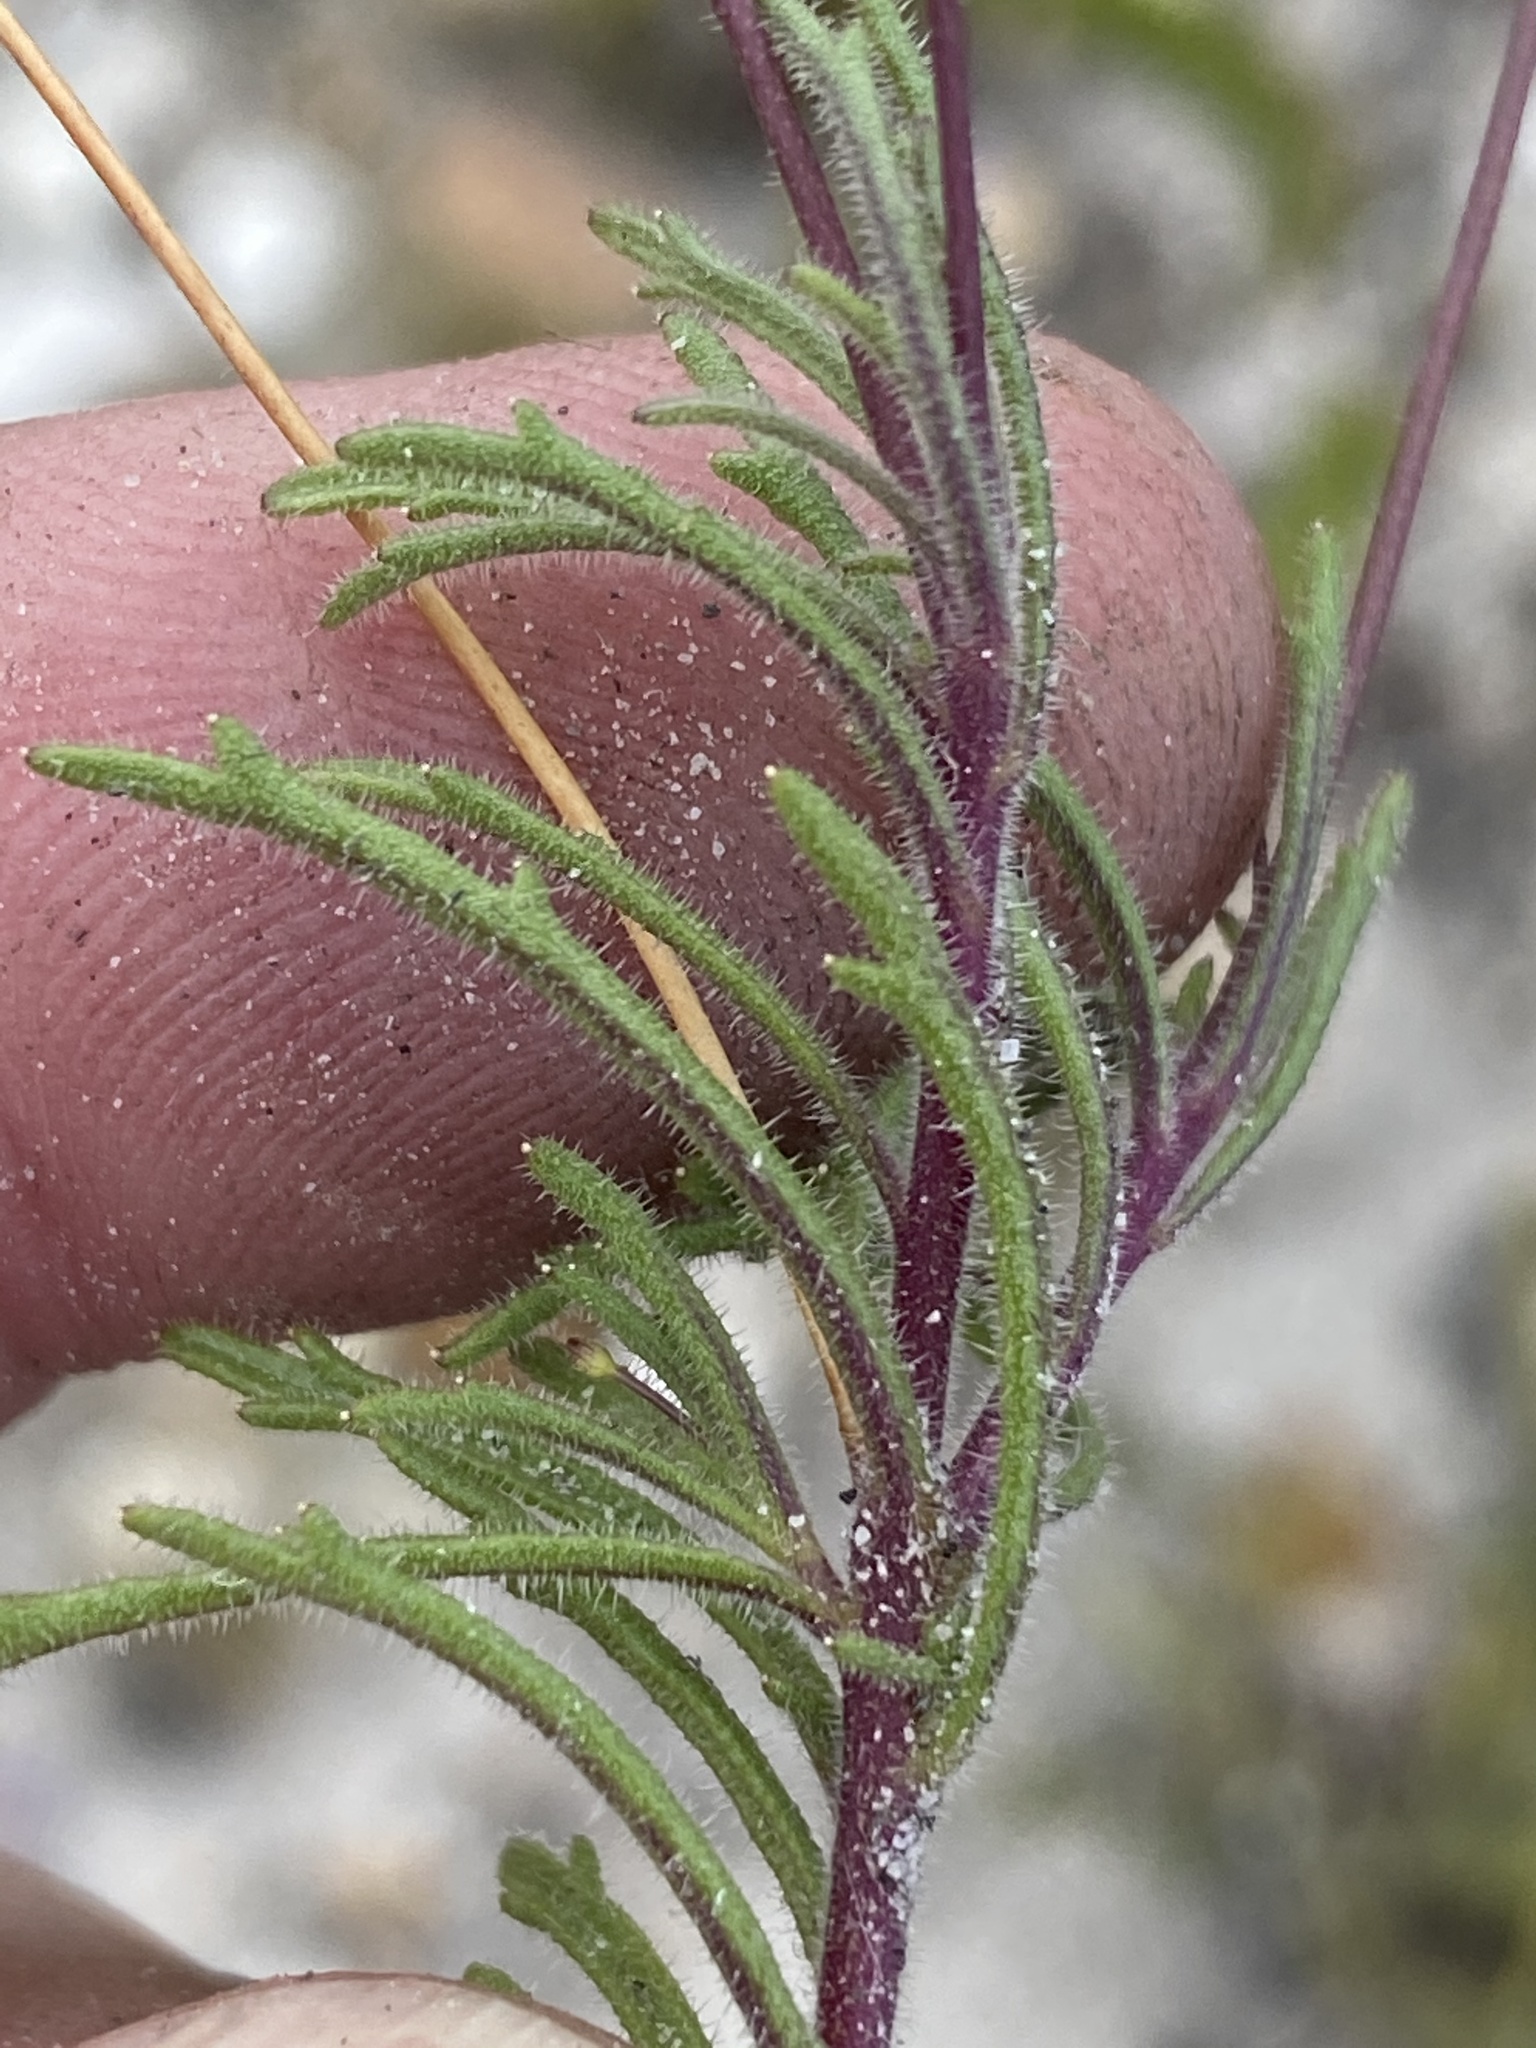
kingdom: Plantae
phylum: Tracheophyta
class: Magnoliopsida
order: Asterales
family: Campanulaceae
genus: Lobelia
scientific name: Lobelia chamaepitys
